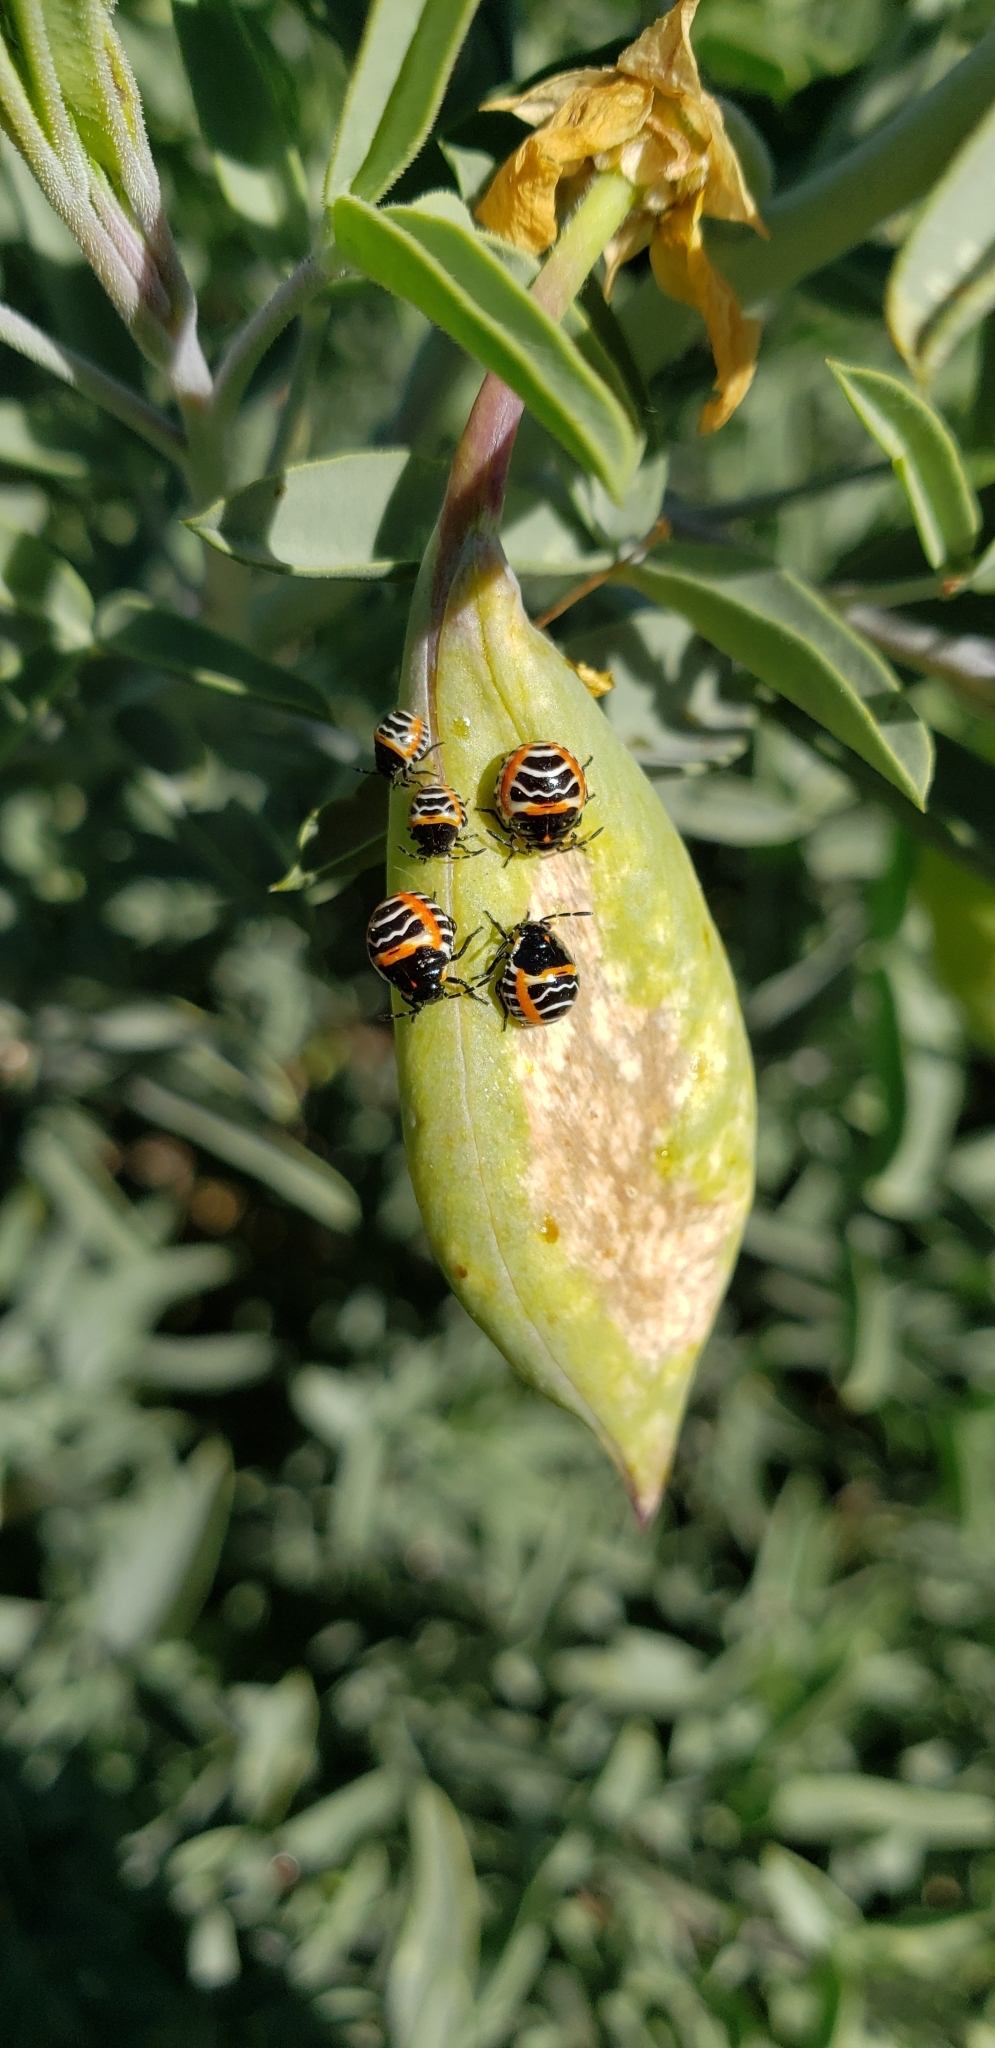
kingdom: Animalia
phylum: Arthropoda
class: Insecta
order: Hemiptera
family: Pentatomidae
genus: Murgantia
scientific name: Murgantia histrionica
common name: Harlequin bug
